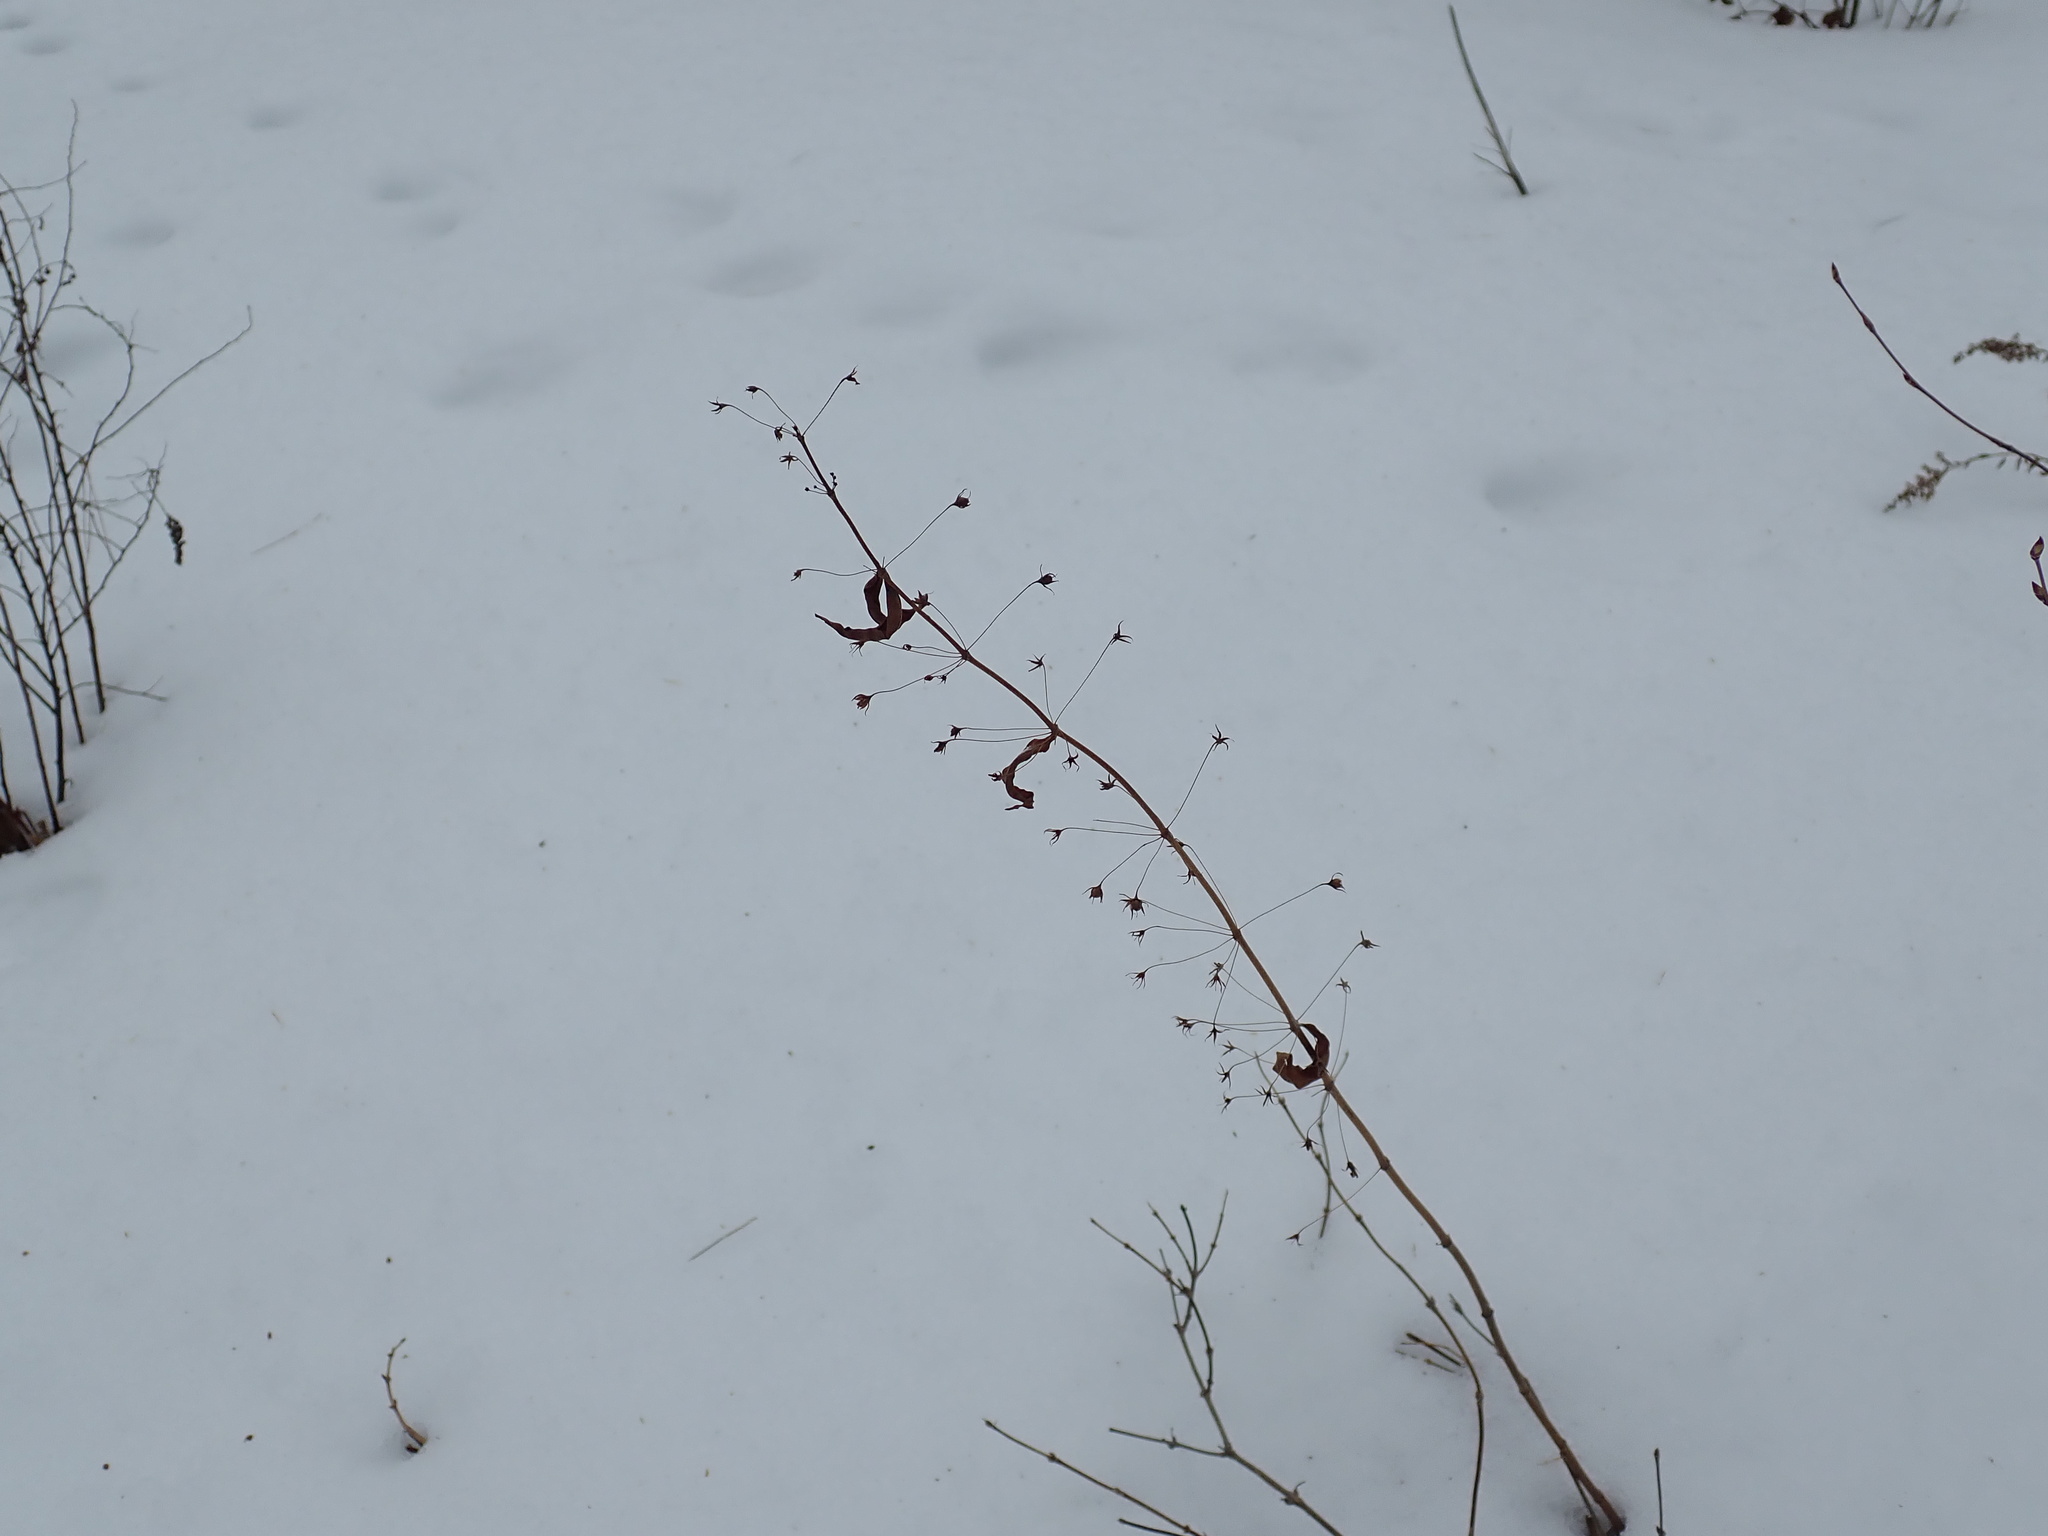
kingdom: Plantae
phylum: Tracheophyta
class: Magnoliopsida
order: Ericales
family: Primulaceae
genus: Lysimachia
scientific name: Lysimachia quadrifolia
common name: Whorled loosestrife
